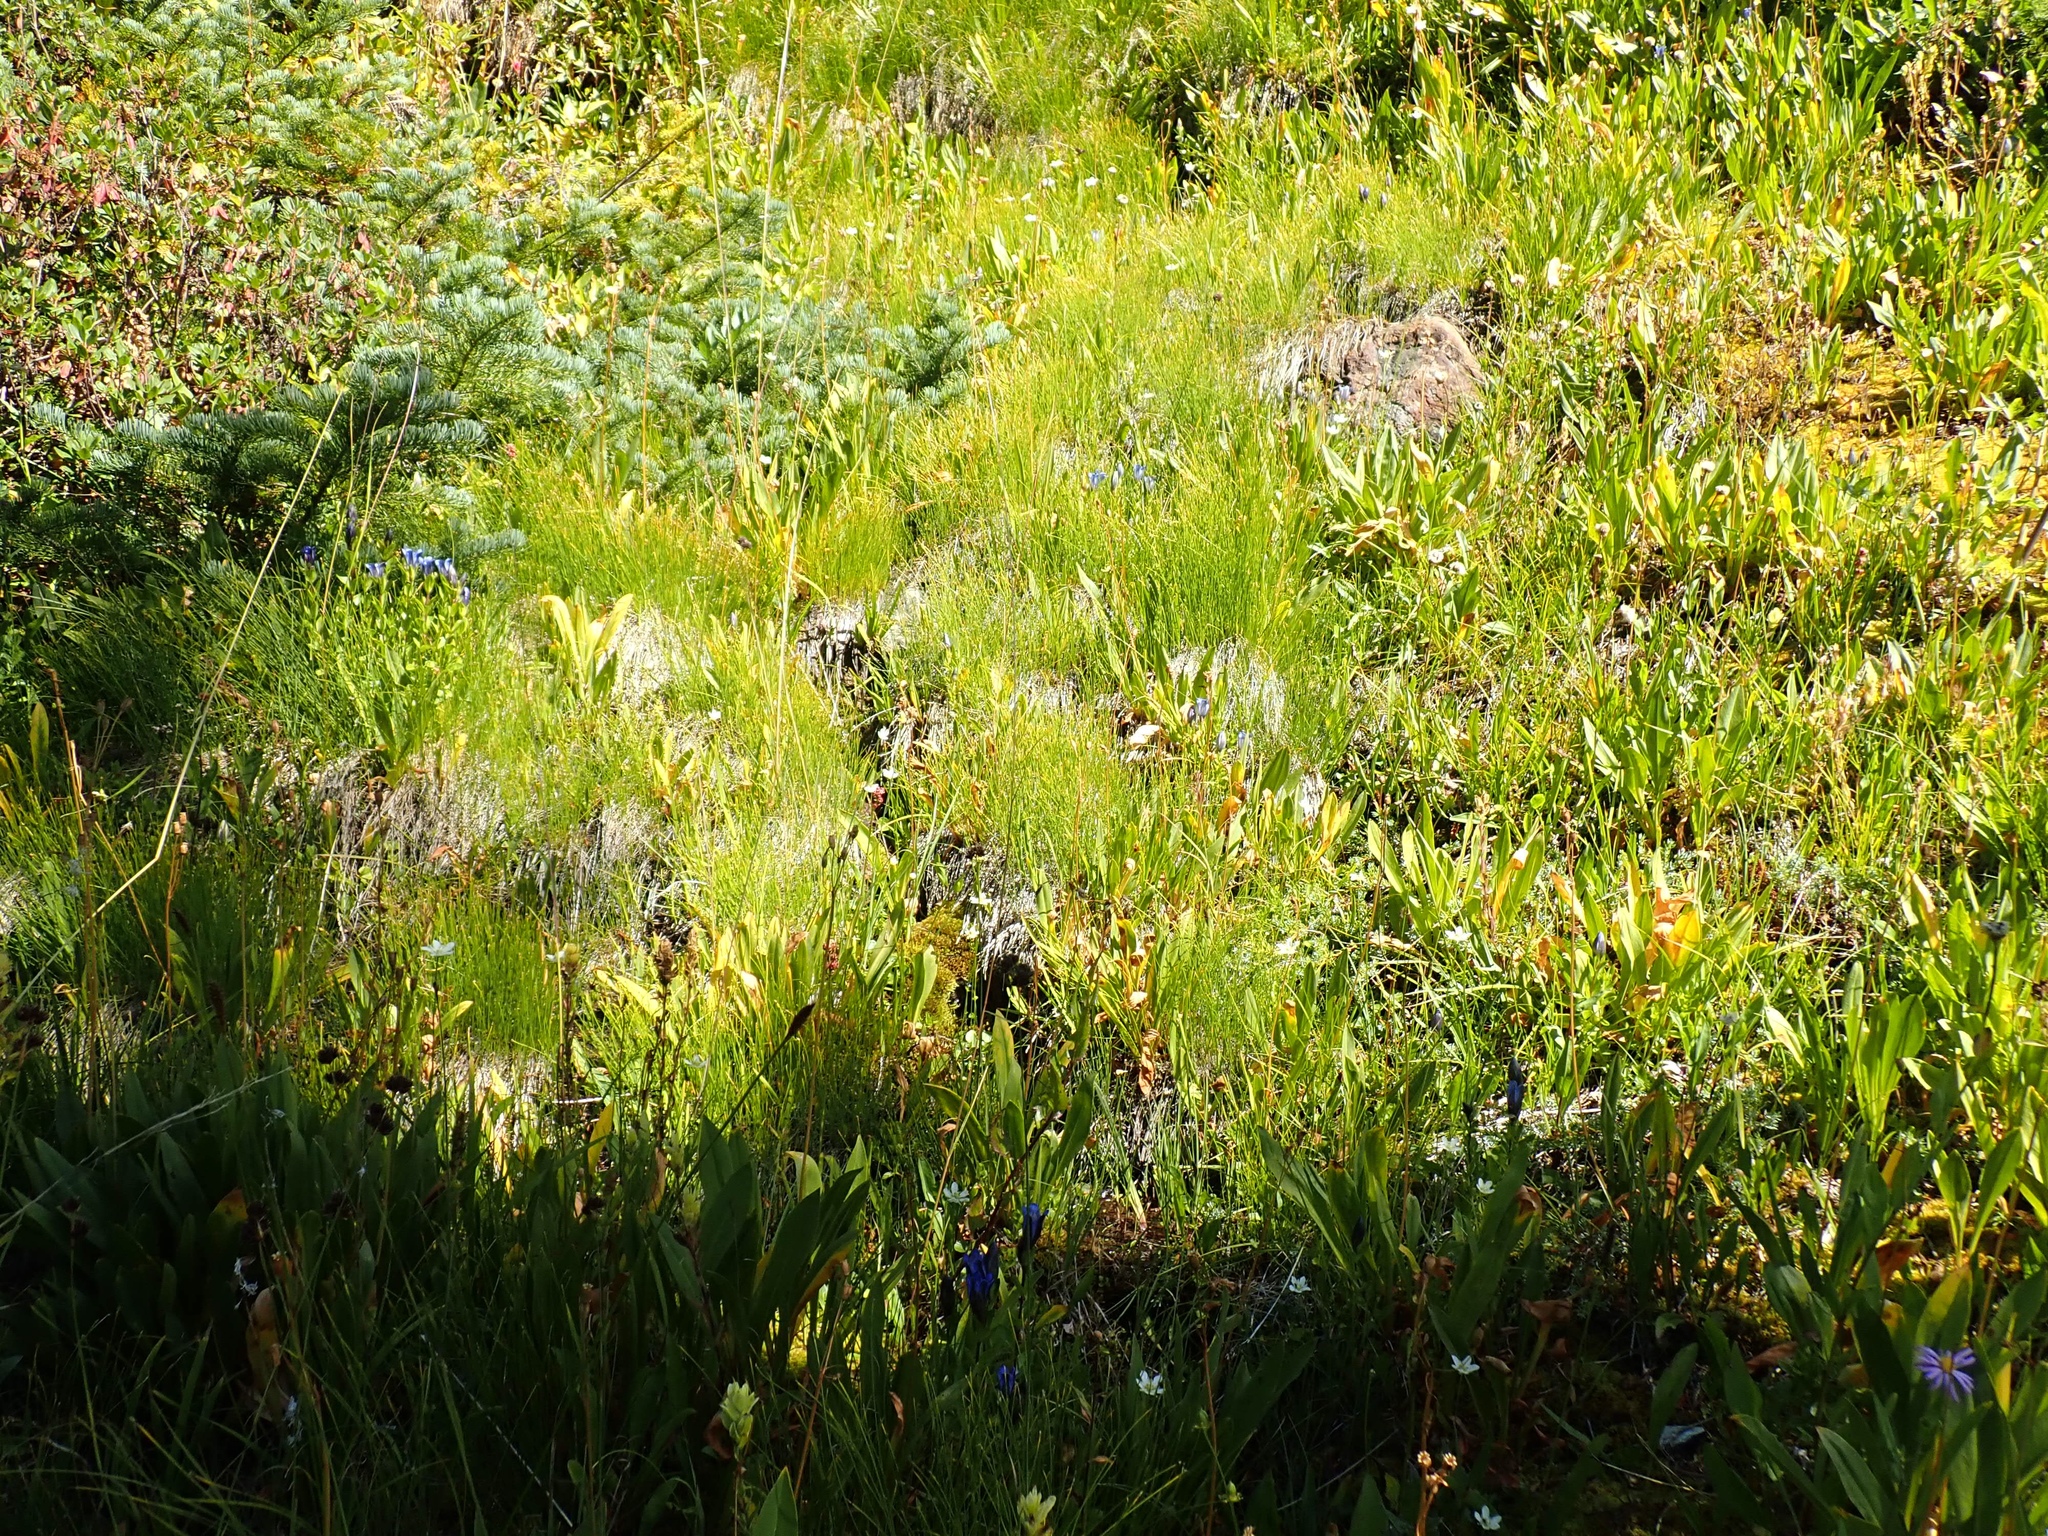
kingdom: Plantae
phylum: Tracheophyta
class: Magnoliopsida
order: Gentianales
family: Gentianaceae
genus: Gentiana
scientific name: Gentiana calycosa
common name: Rainier pleated gentian
